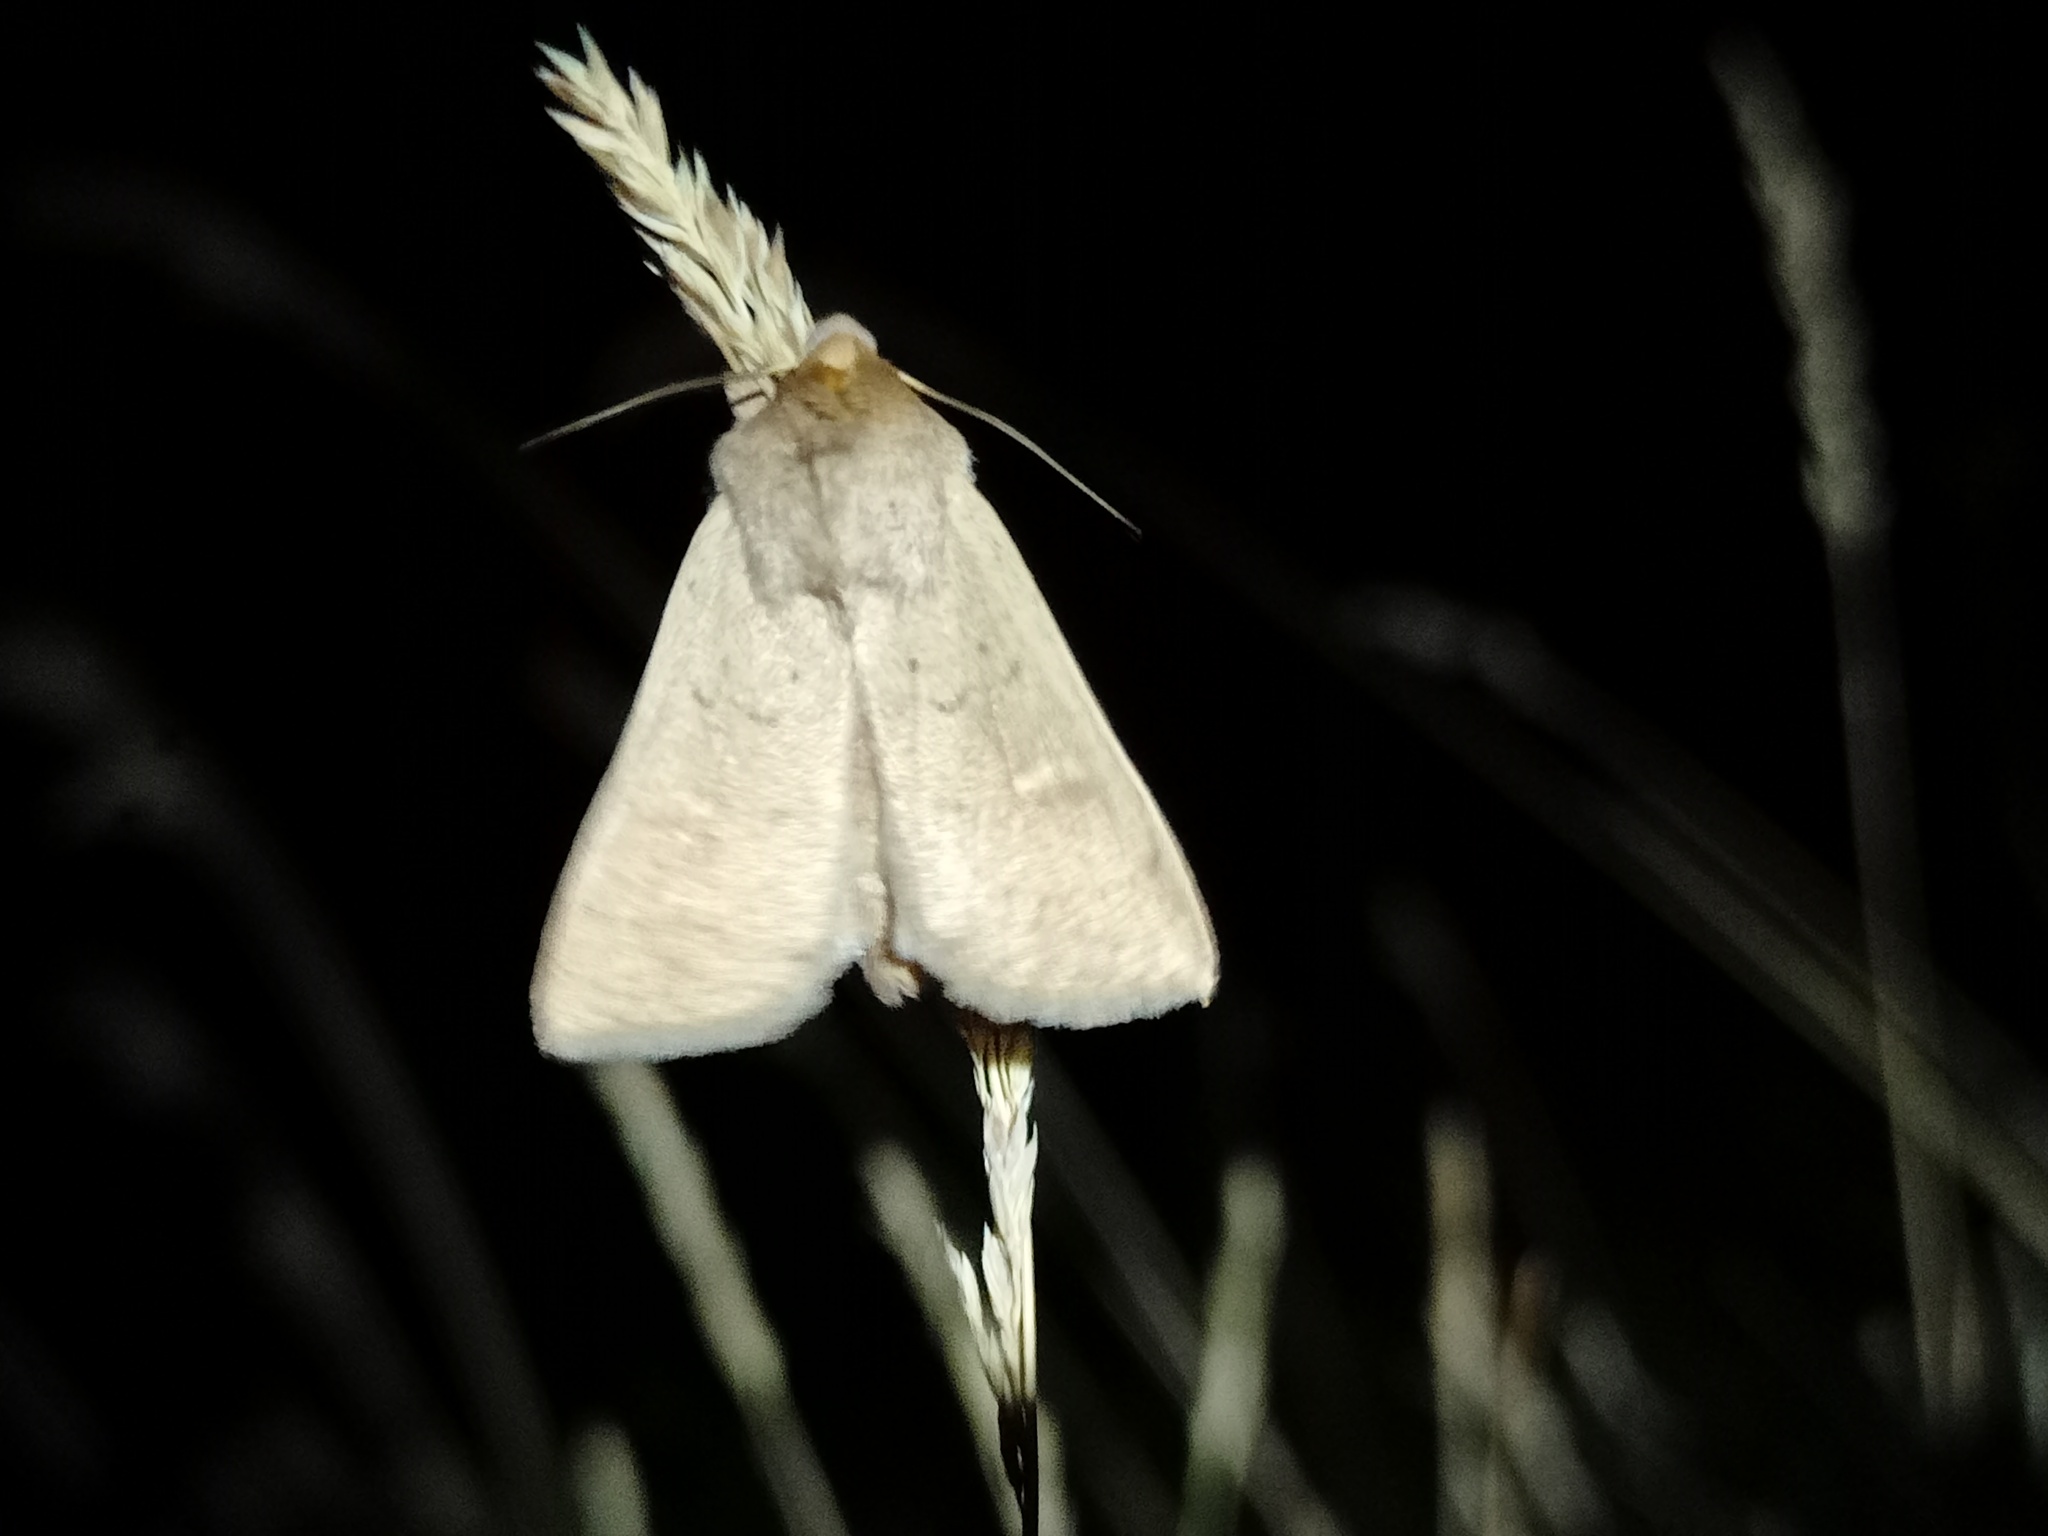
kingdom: Animalia
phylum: Arthropoda
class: Insecta
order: Lepidoptera
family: Noctuidae
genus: Mythimna
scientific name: Mythimna ferrago
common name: Clay
